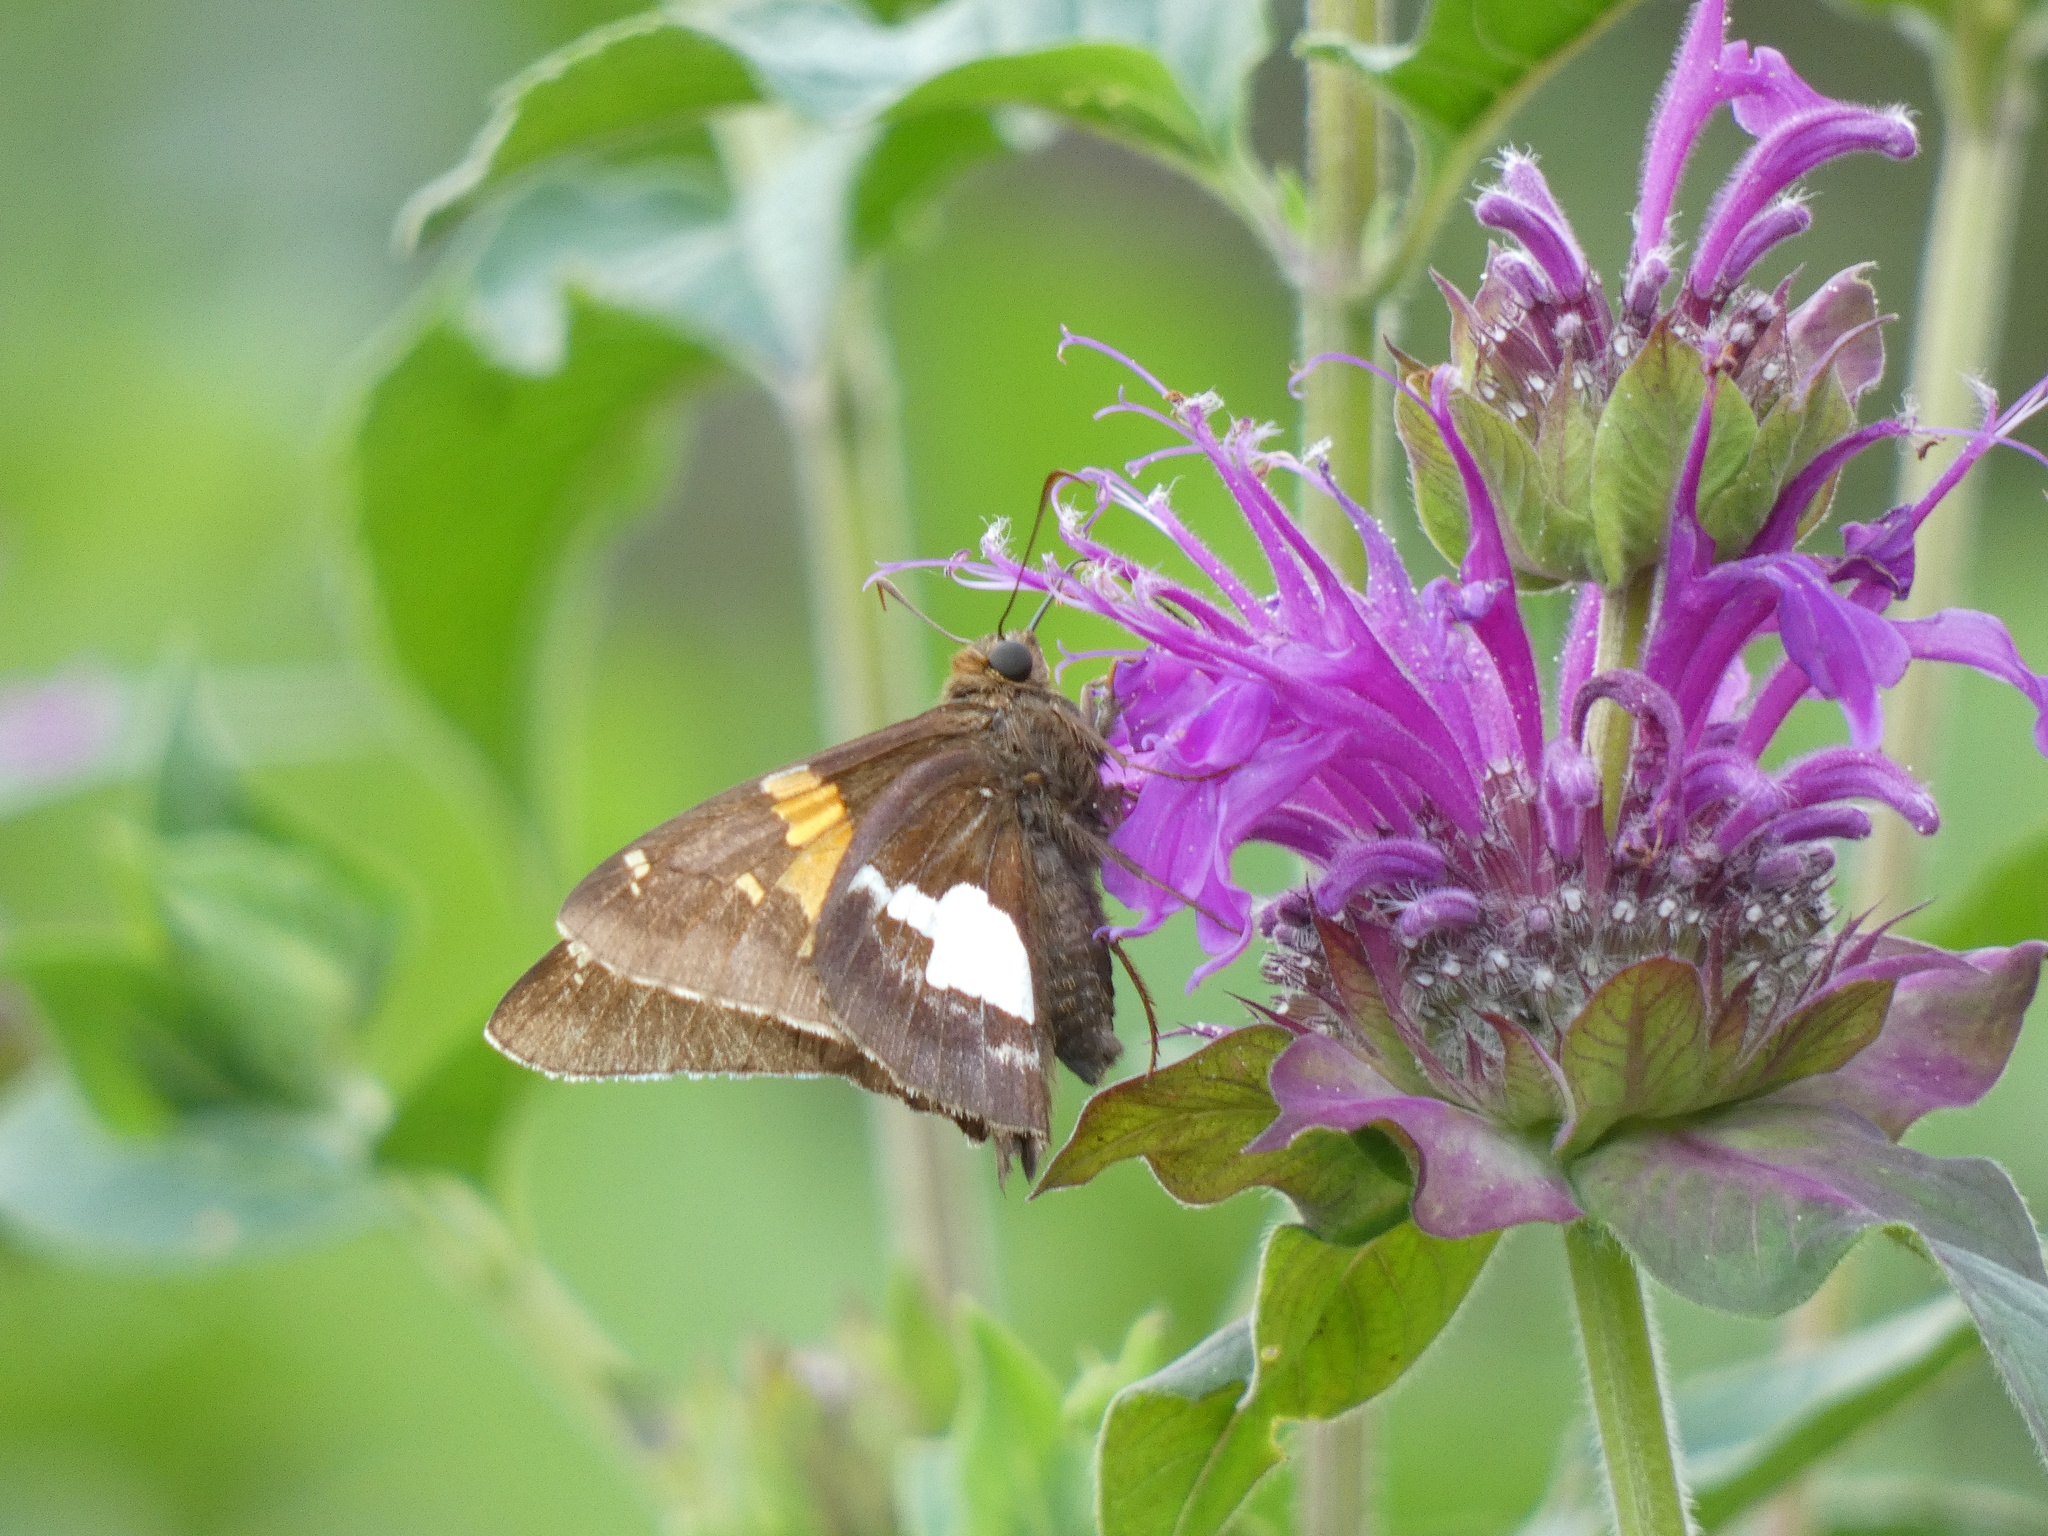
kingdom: Animalia
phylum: Arthropoda
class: Insecta
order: Lepidoptera
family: Hesperiidae
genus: Epargyreus
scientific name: Epargyreus clarus
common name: Silver-spotted skipper
